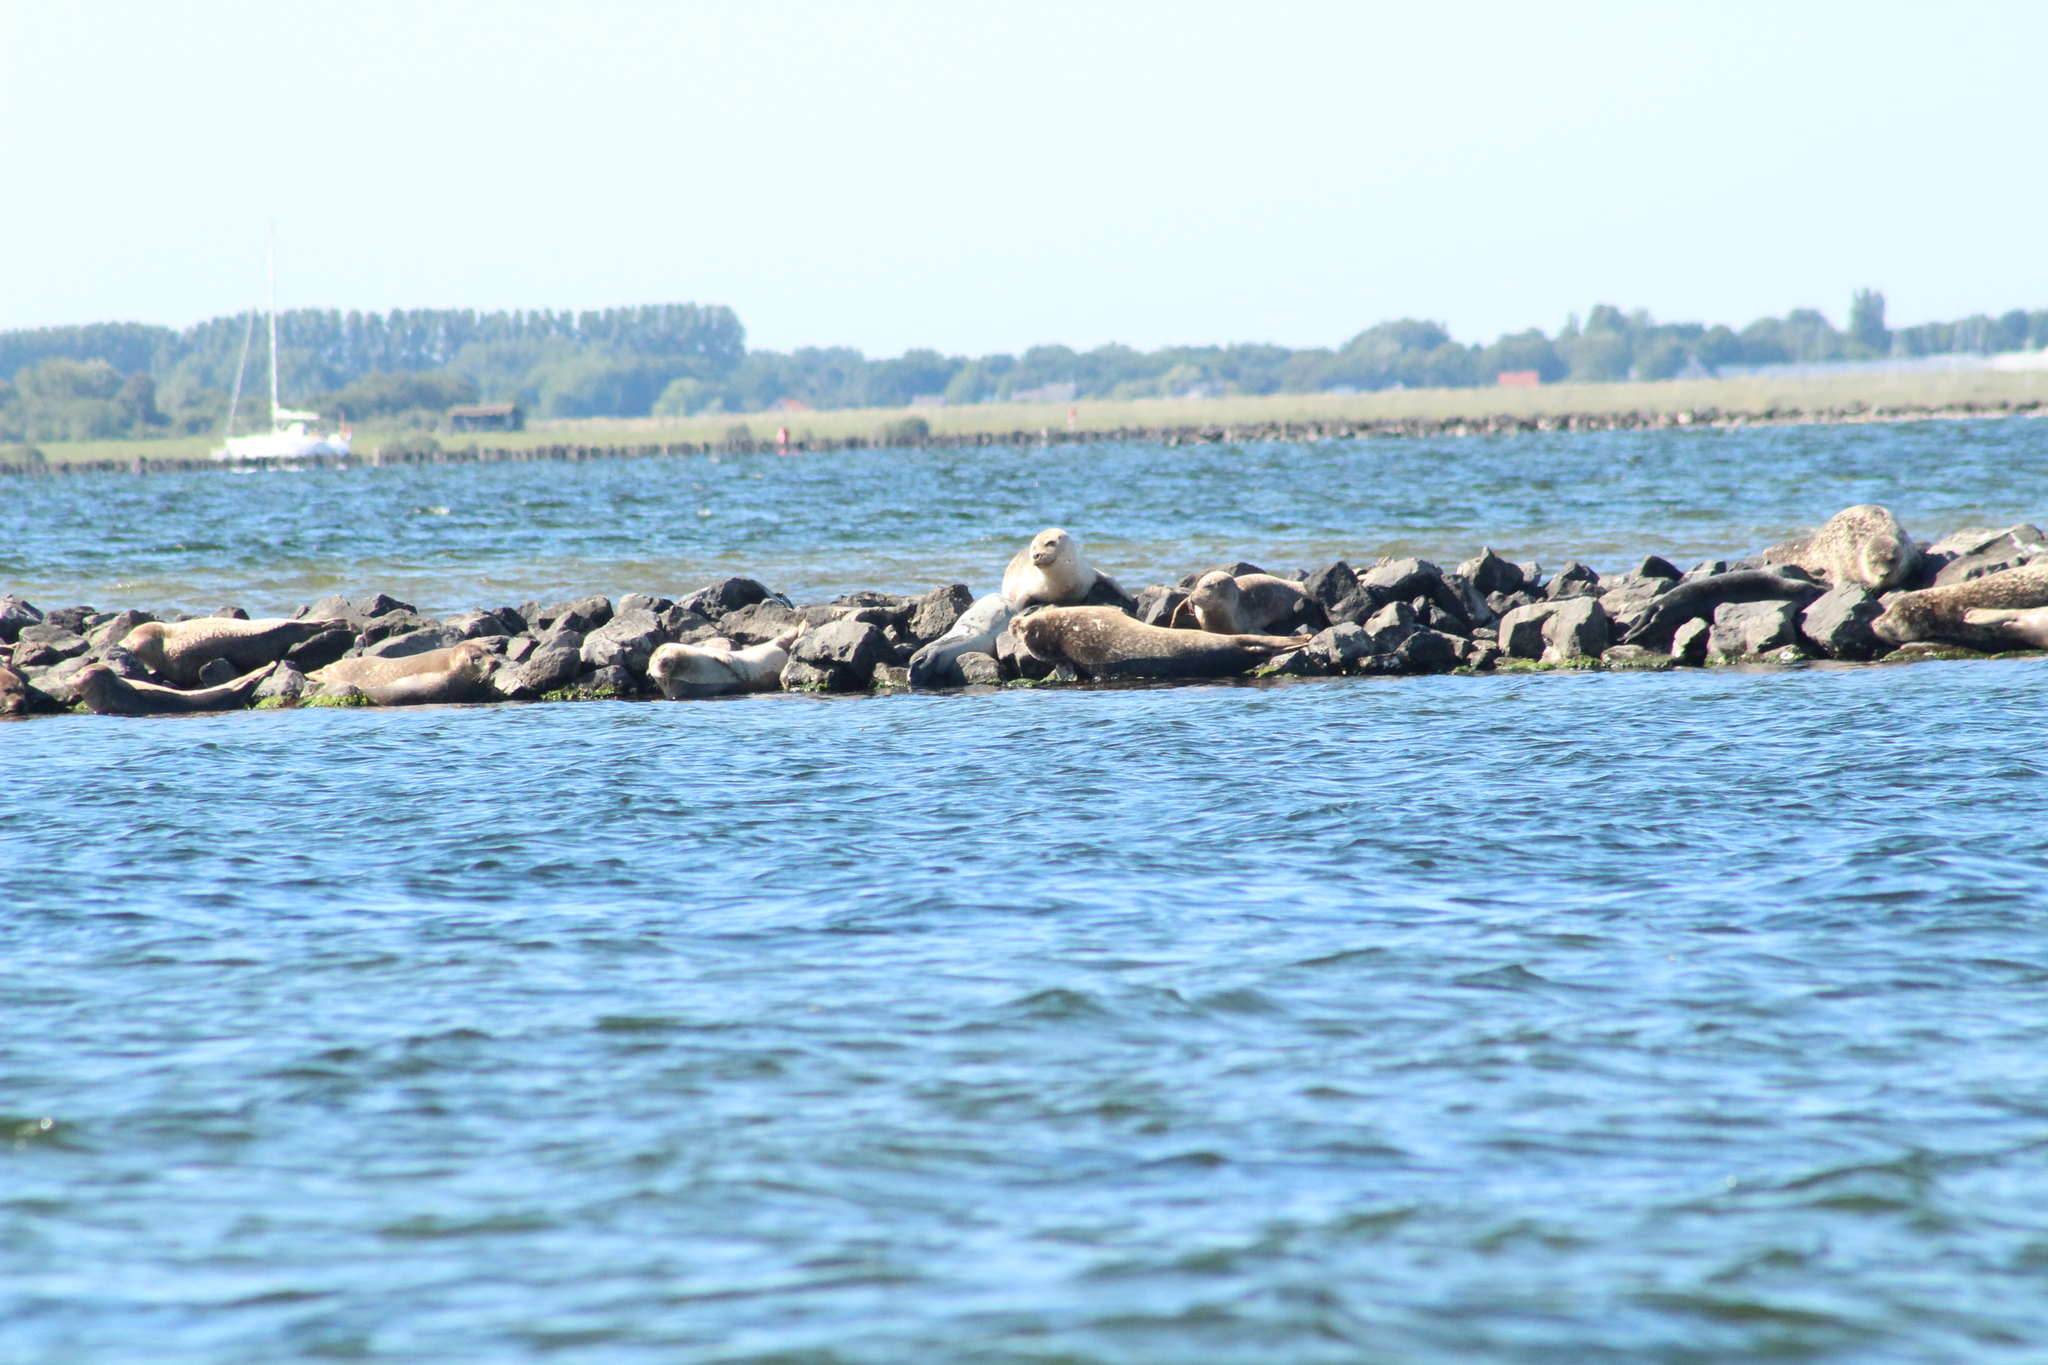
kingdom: Animalia
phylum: Chordata
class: Mammalia
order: Carnivora
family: Phocidae
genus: Phoca
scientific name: Phoca vitulina
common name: Harbor seal
